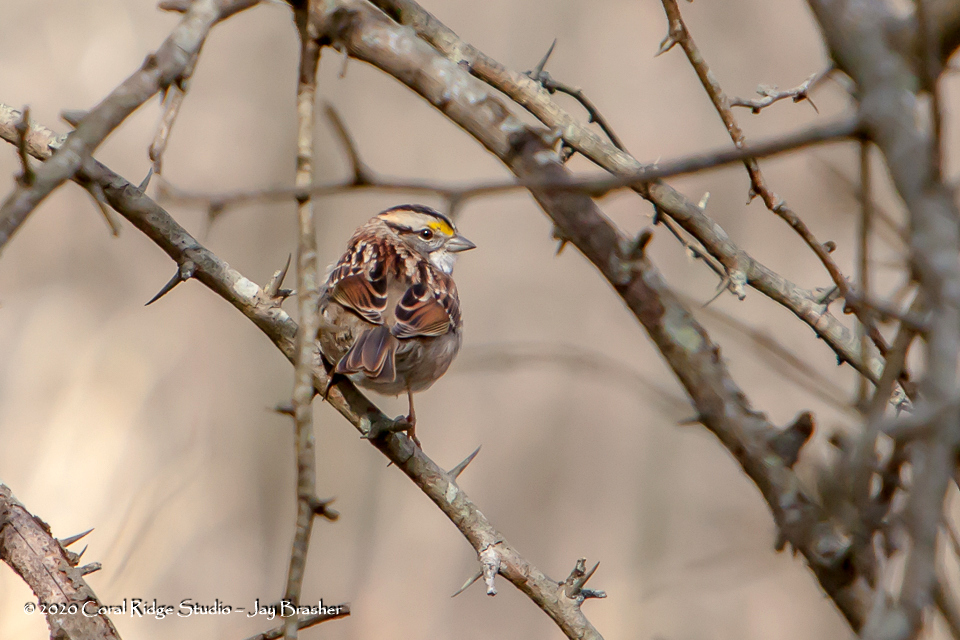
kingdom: Animalia
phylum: Chordata
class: Aves
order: Passeriformes
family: Passerellidae
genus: Zonotrichia
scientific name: Zonotrichia albicollis
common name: White-throated sparrow
